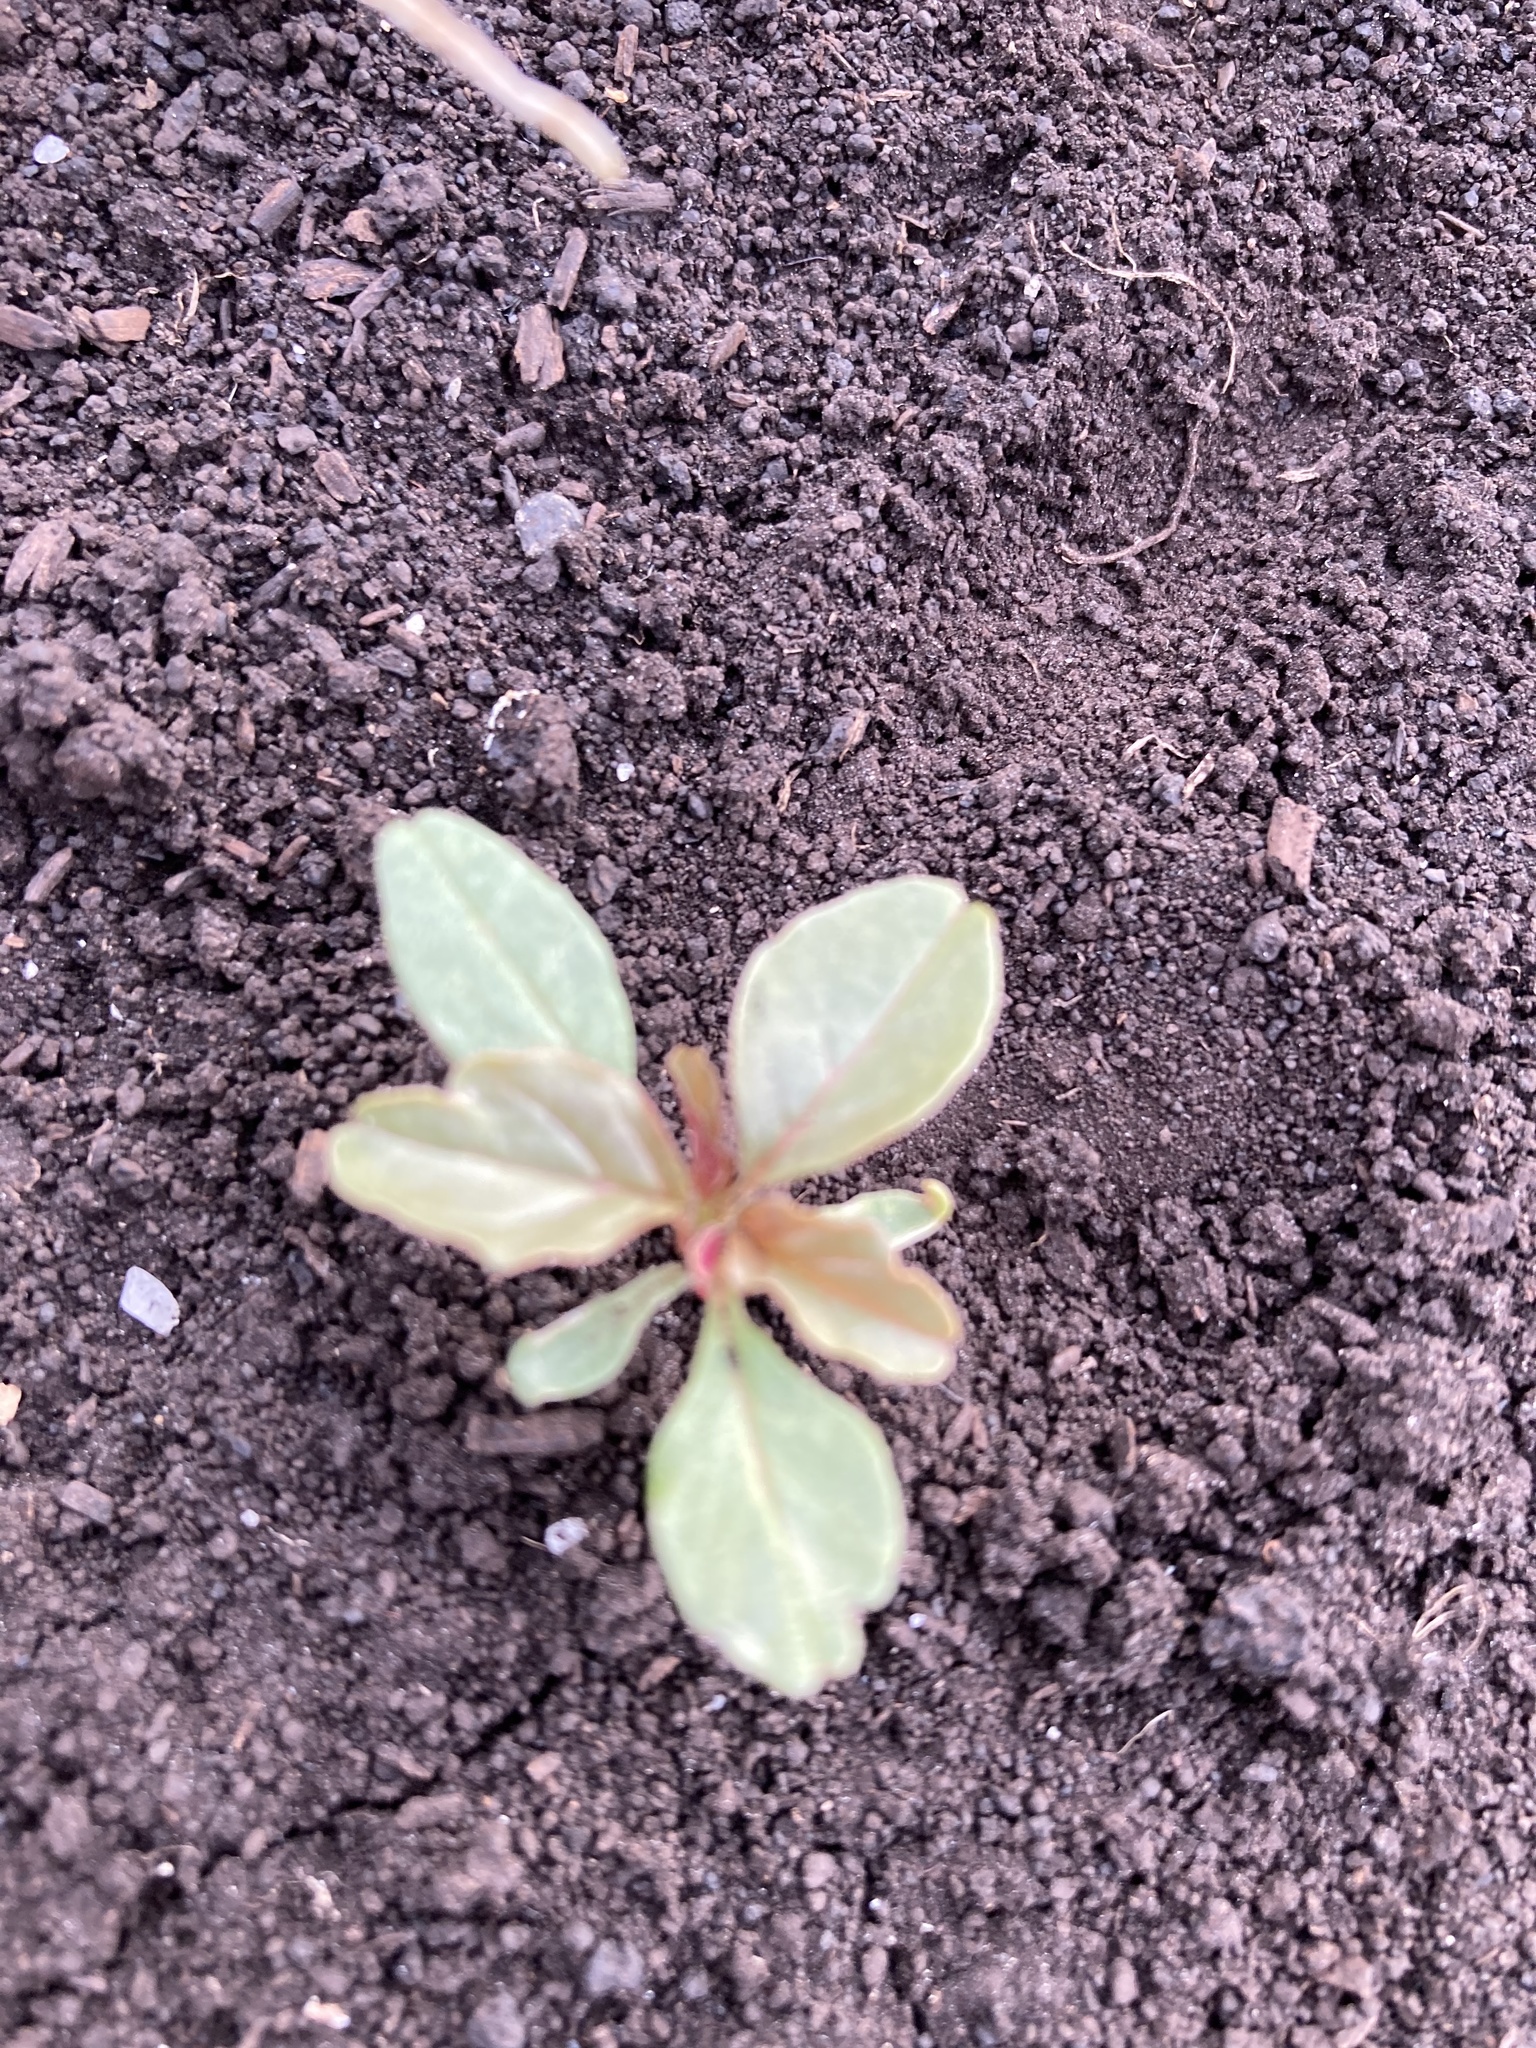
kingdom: Plantae
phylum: Tracheophyta
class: Magnoliopsida
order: Caryophyllales
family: Amaranthaceae
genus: Amaranthus
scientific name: Amaranthus blitum
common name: Purple amaranth
